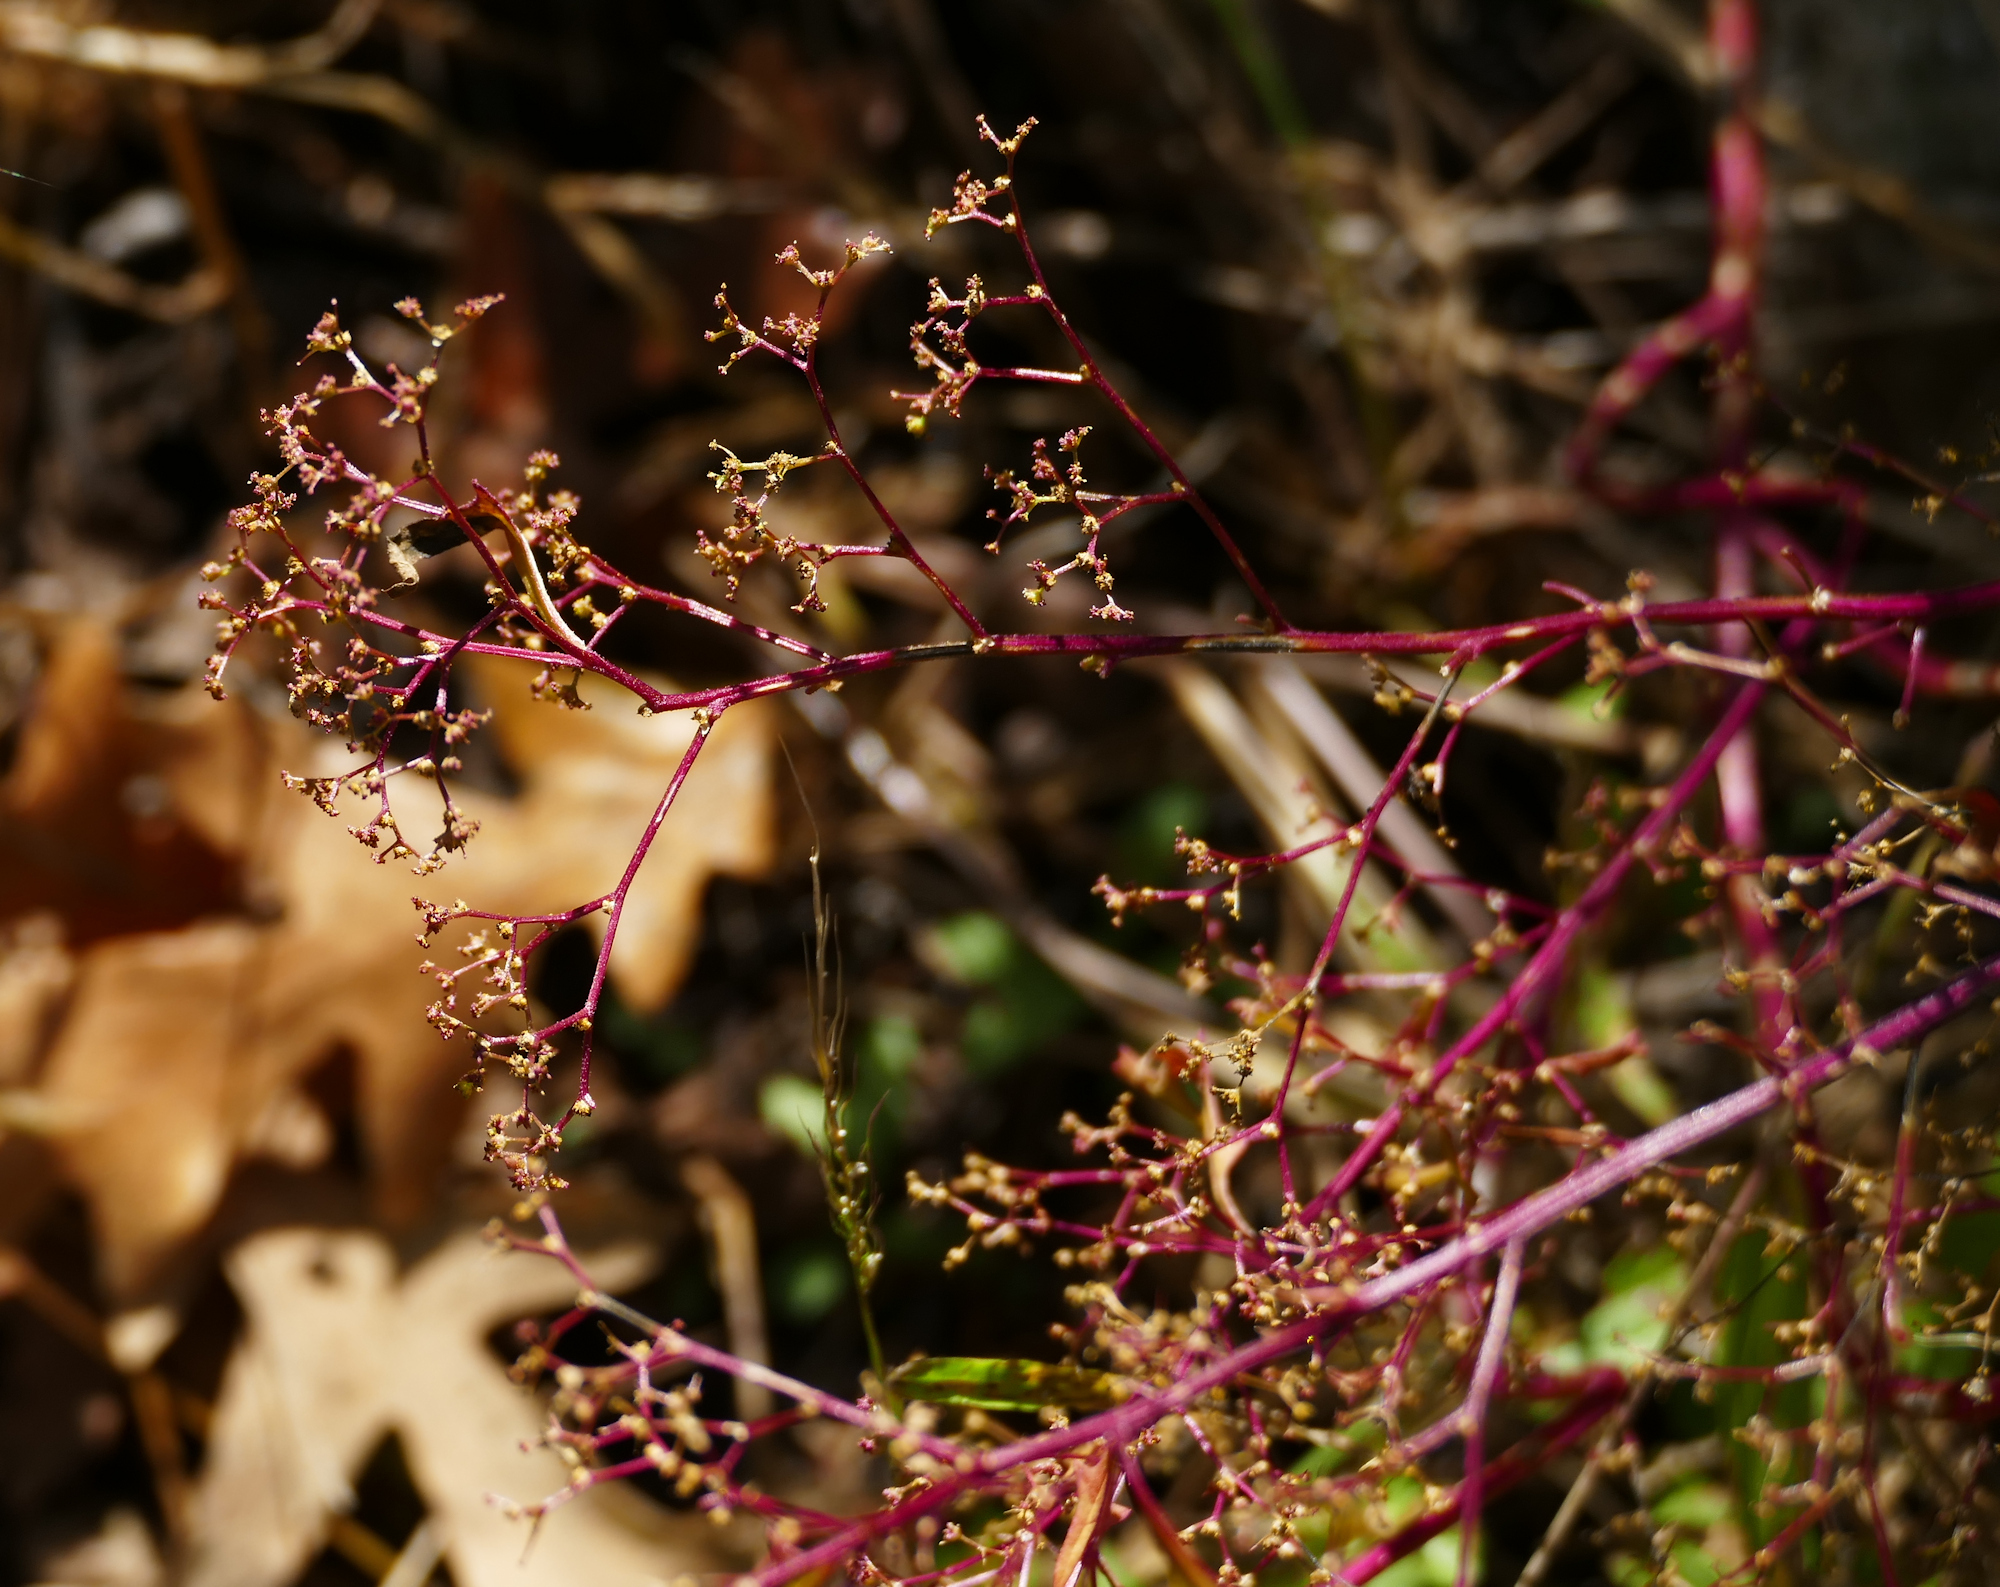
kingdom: Plantae
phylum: Tracheophyta
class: Magnoliopsida
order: Caryophyllales
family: Amaranthaceae
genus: Dysphania
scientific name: Dysphania incisa
